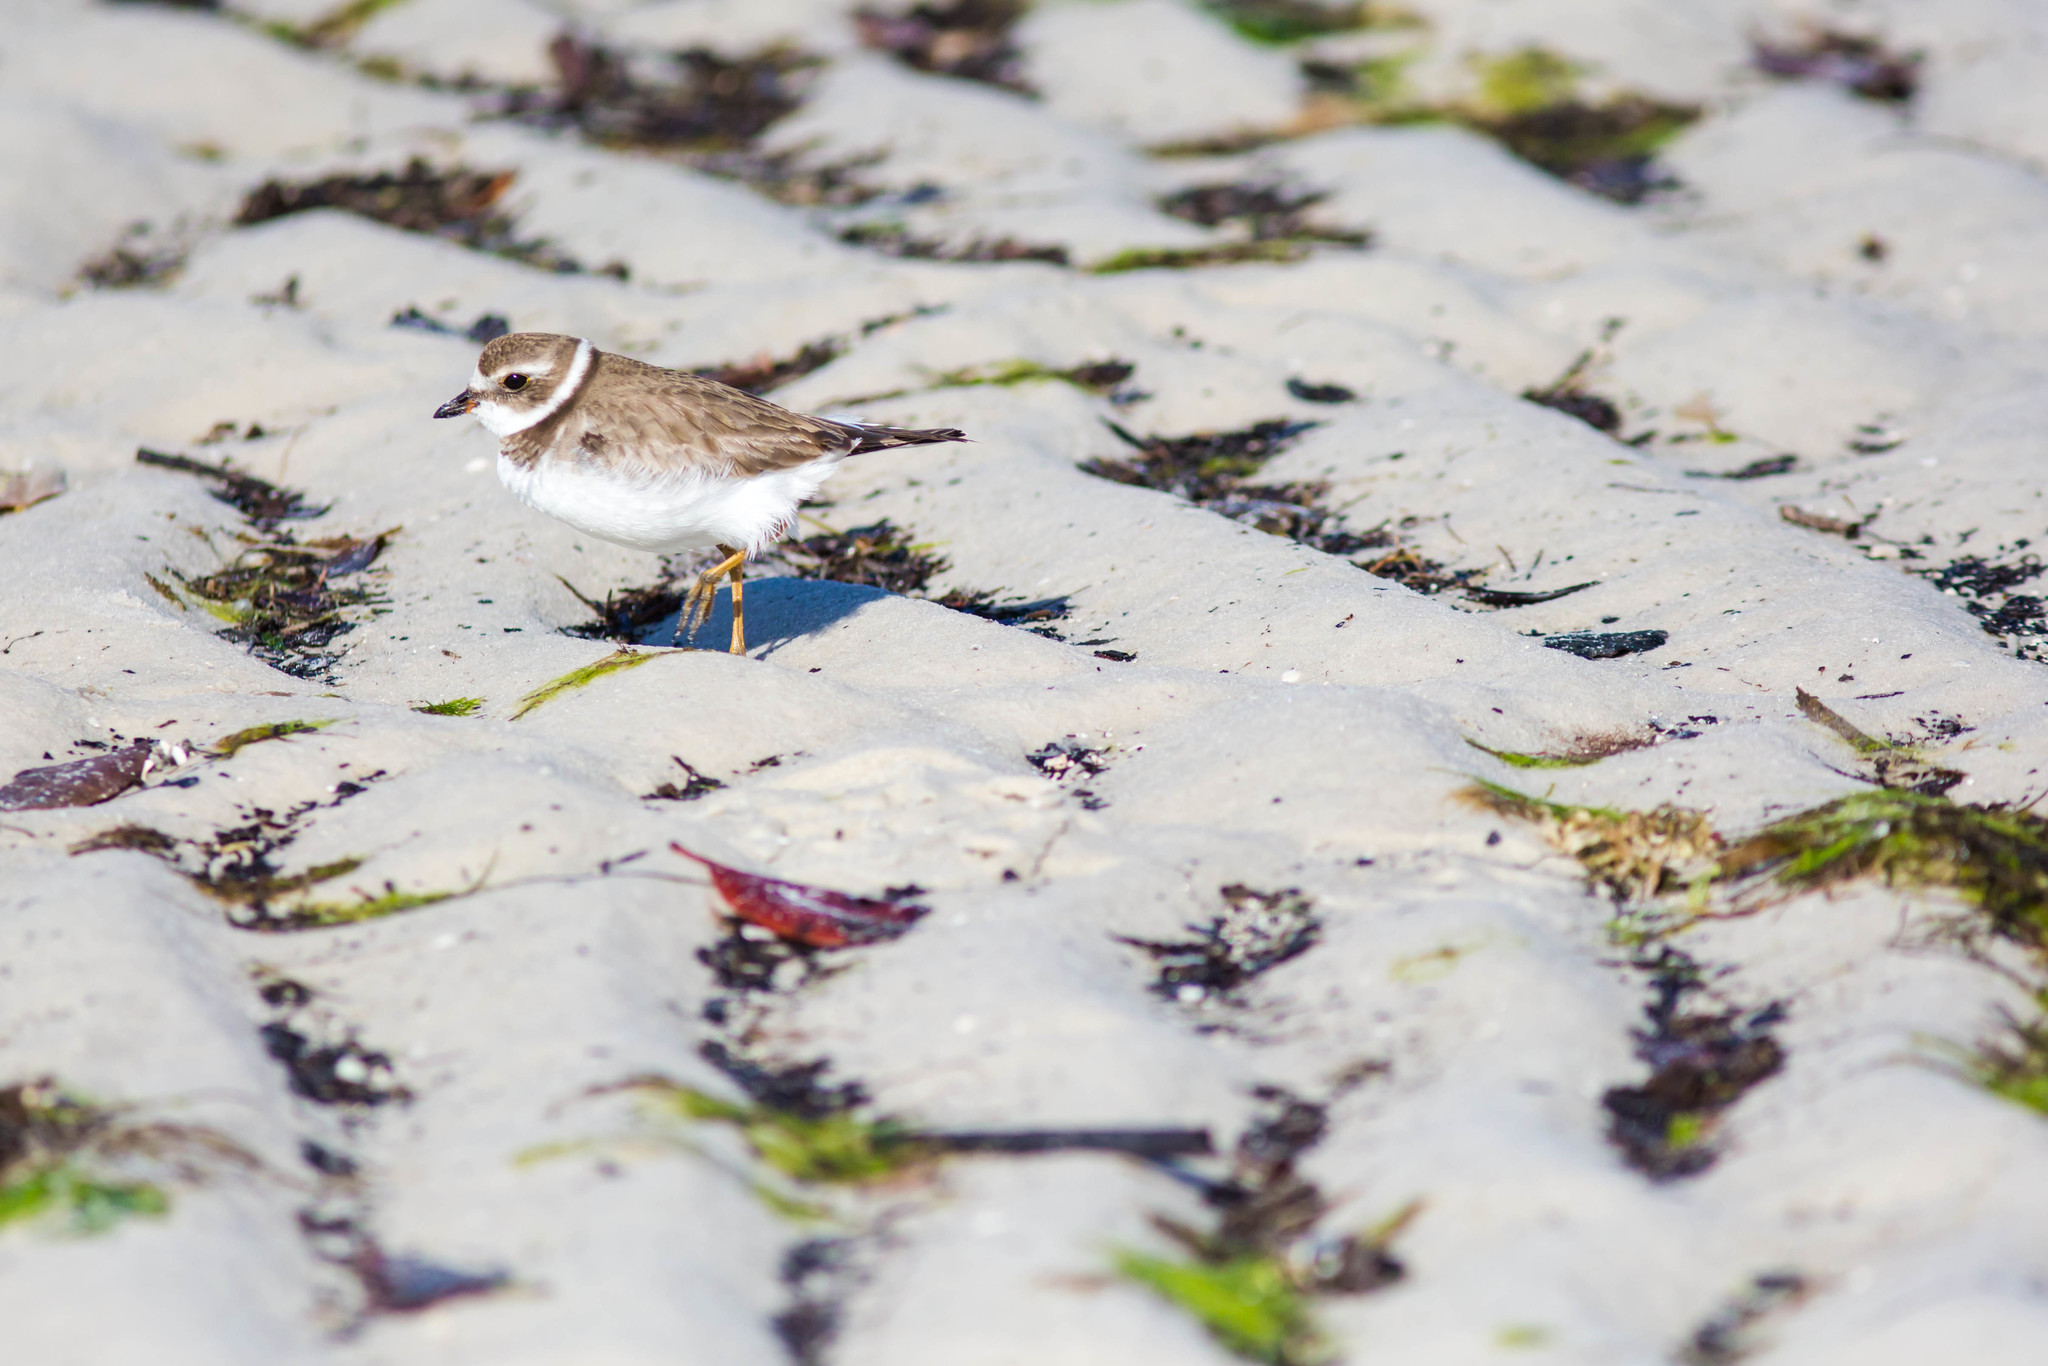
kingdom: Animalia
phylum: Chordata
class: Aves
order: Charadriiformes
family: Charadriidae
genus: Charadrius
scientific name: Charadrius semipalmatus
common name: Semipalmated plover
